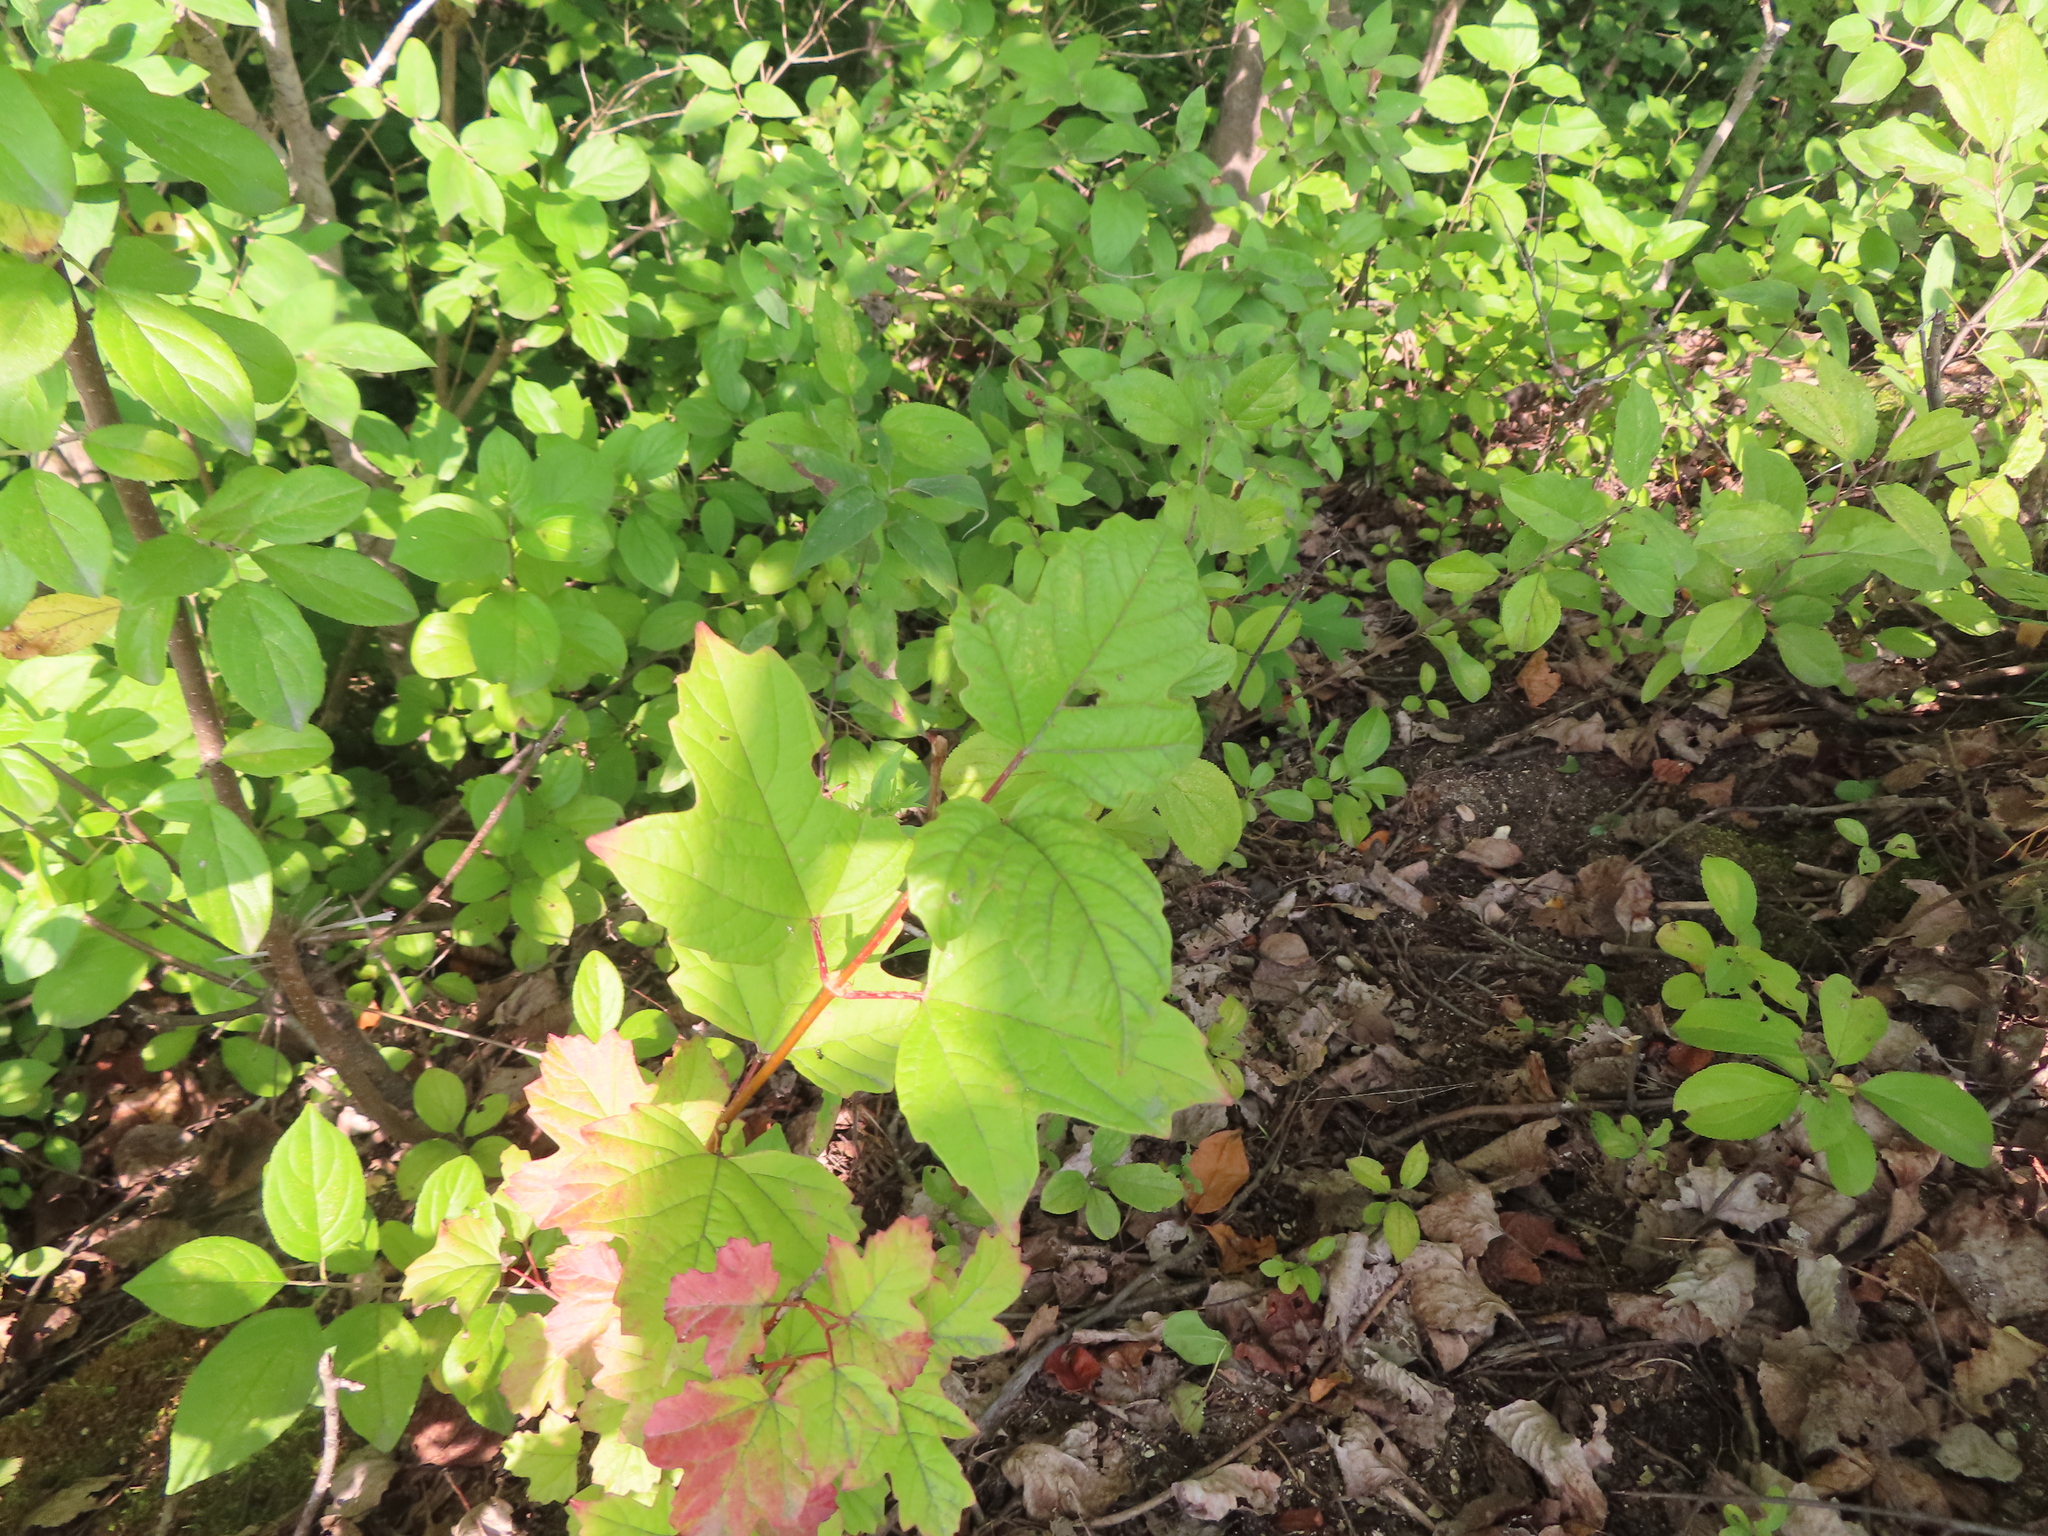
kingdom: Plantae
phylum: Tracheophyta
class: Magnoliopsida
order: Dipsacales
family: Viburnaceae
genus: Viburnum
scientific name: Viburnum opulus
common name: Guelder-rose
